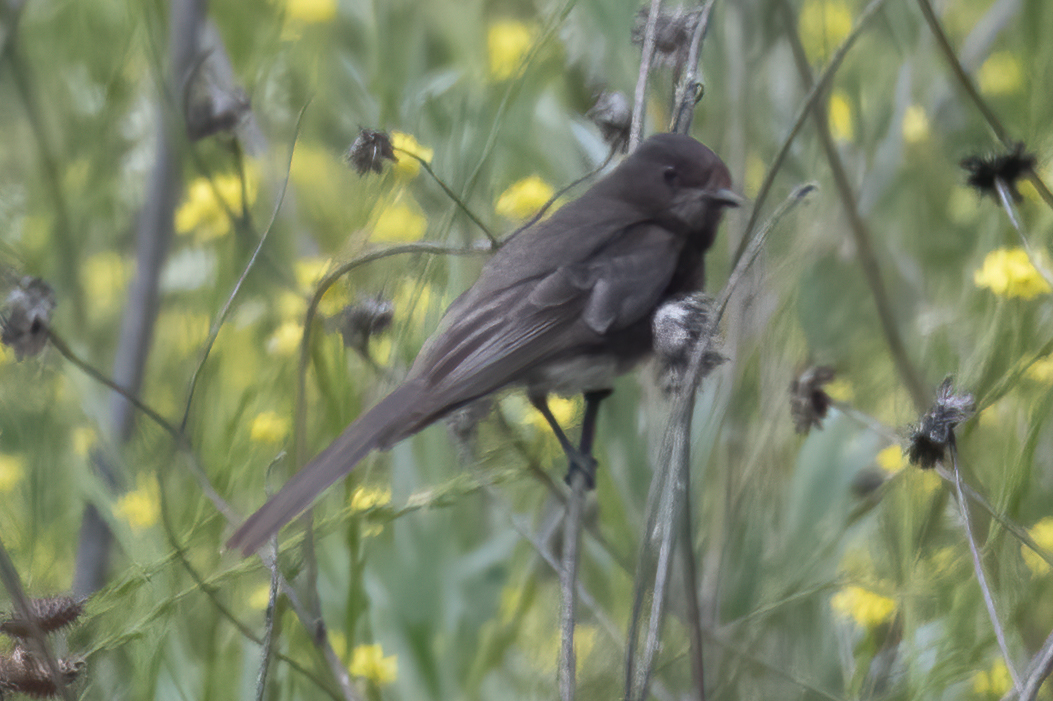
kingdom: Animalia
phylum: Chordata
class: Aves
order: Passeriformes
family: Tyrannidae
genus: Sayornis
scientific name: Sayornis nigricans
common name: Black phoebe
